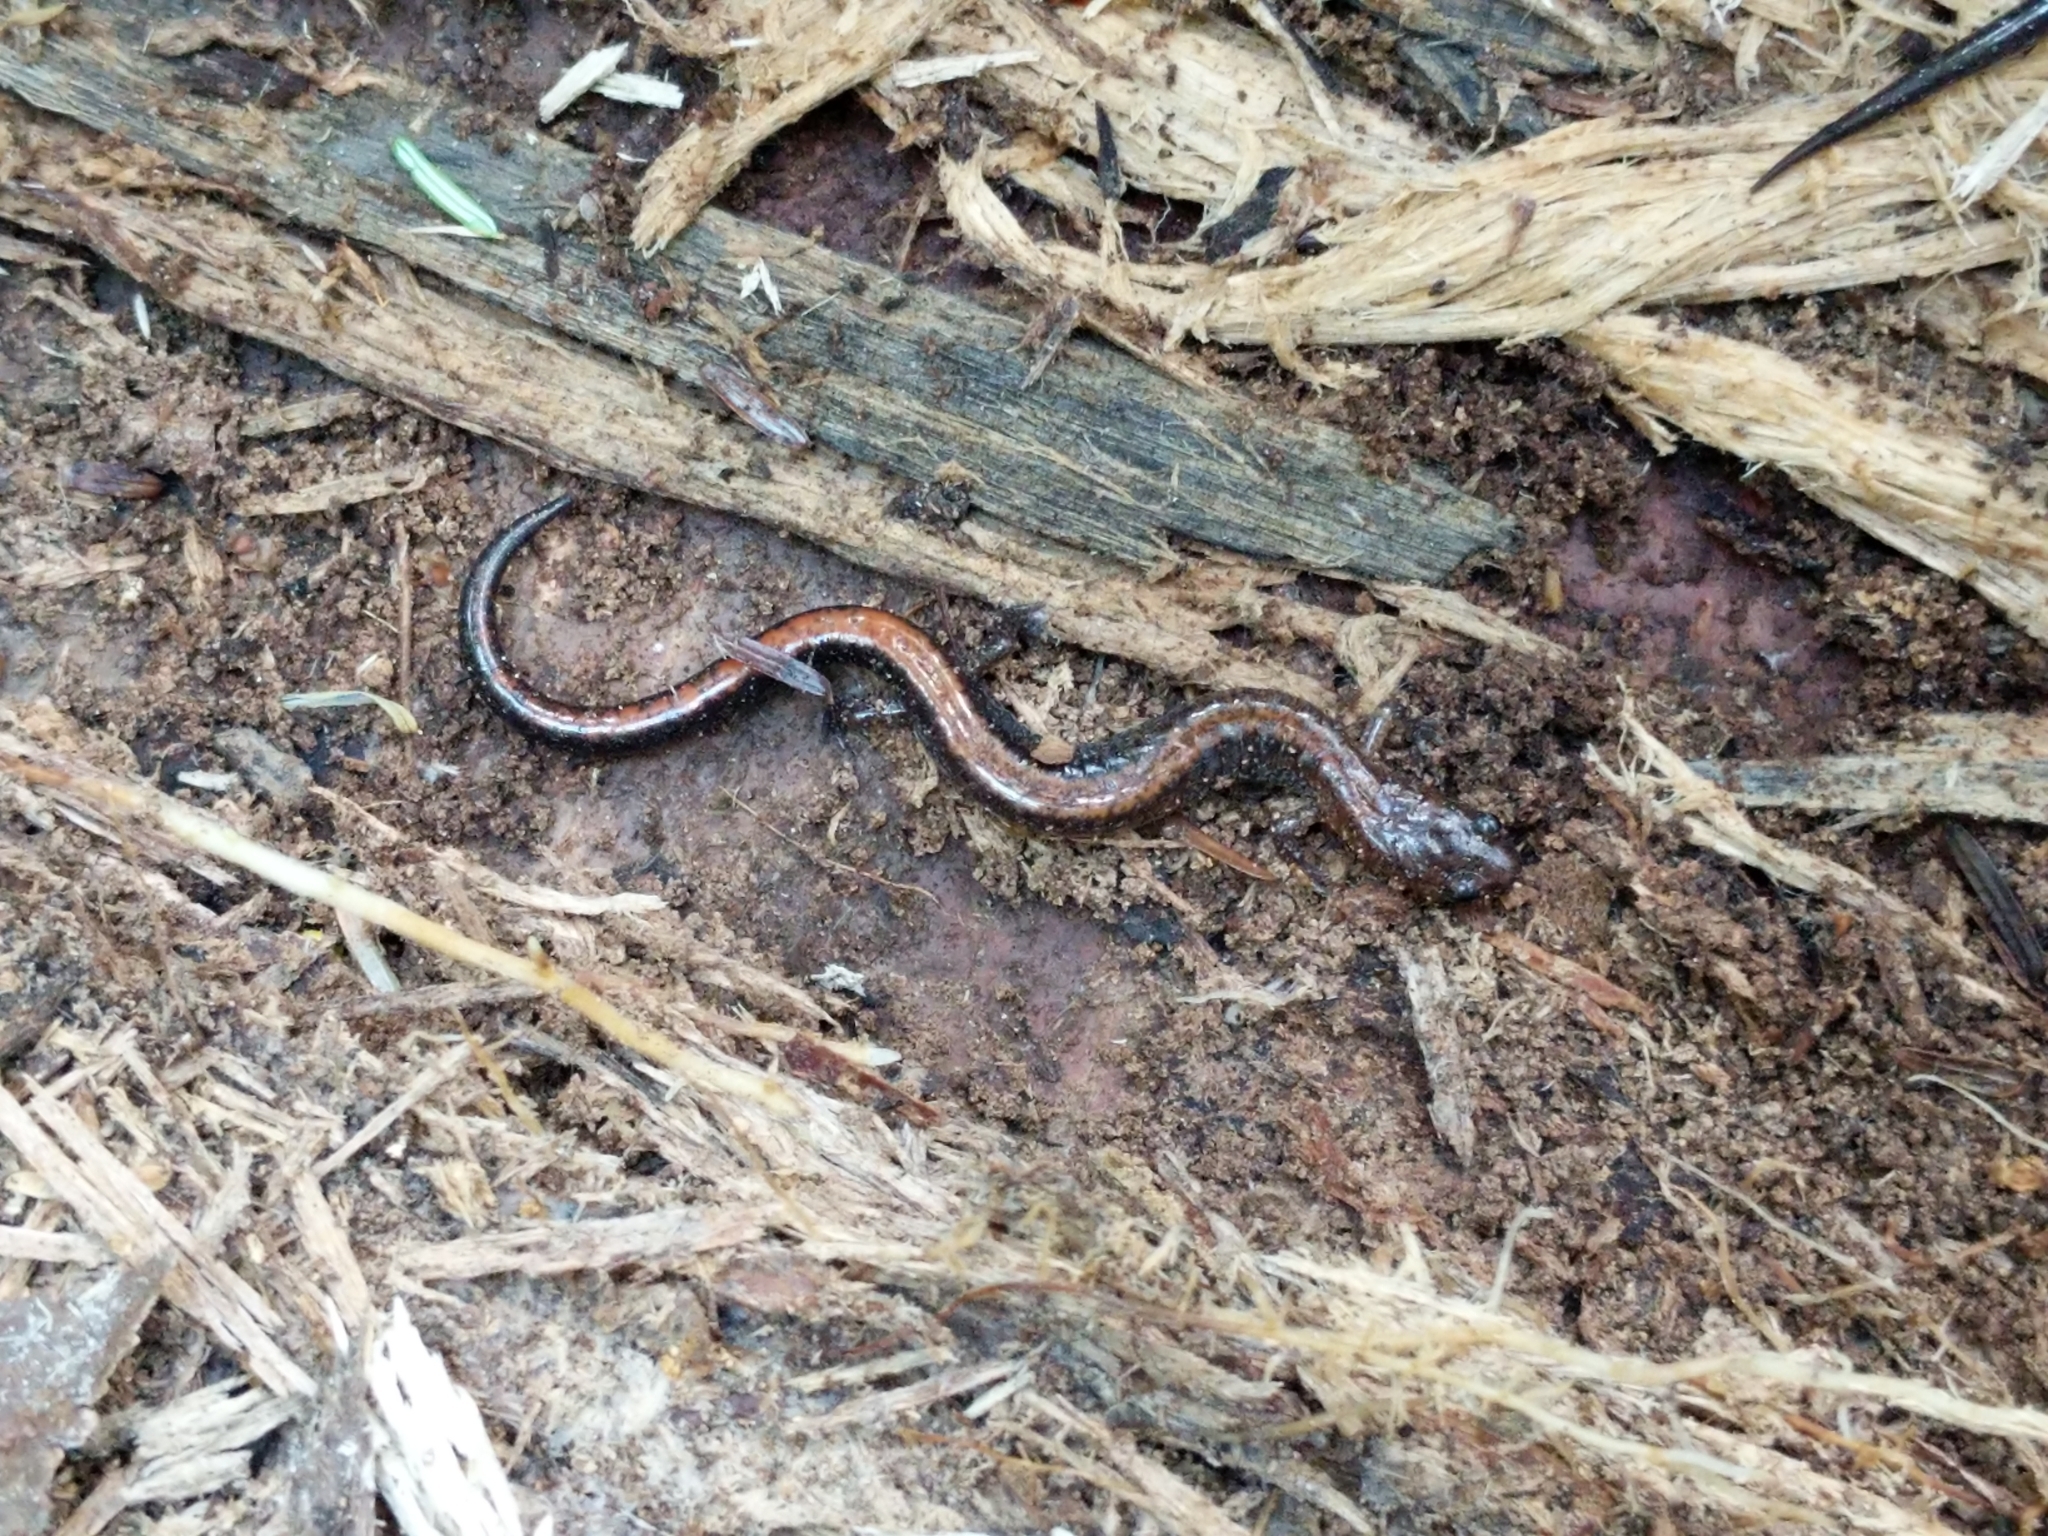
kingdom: Animalia
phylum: Chordata
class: Amphibia
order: Caudata
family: Plethodontidae
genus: Plethodon
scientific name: Plethodon cinereus
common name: Redback salamander
